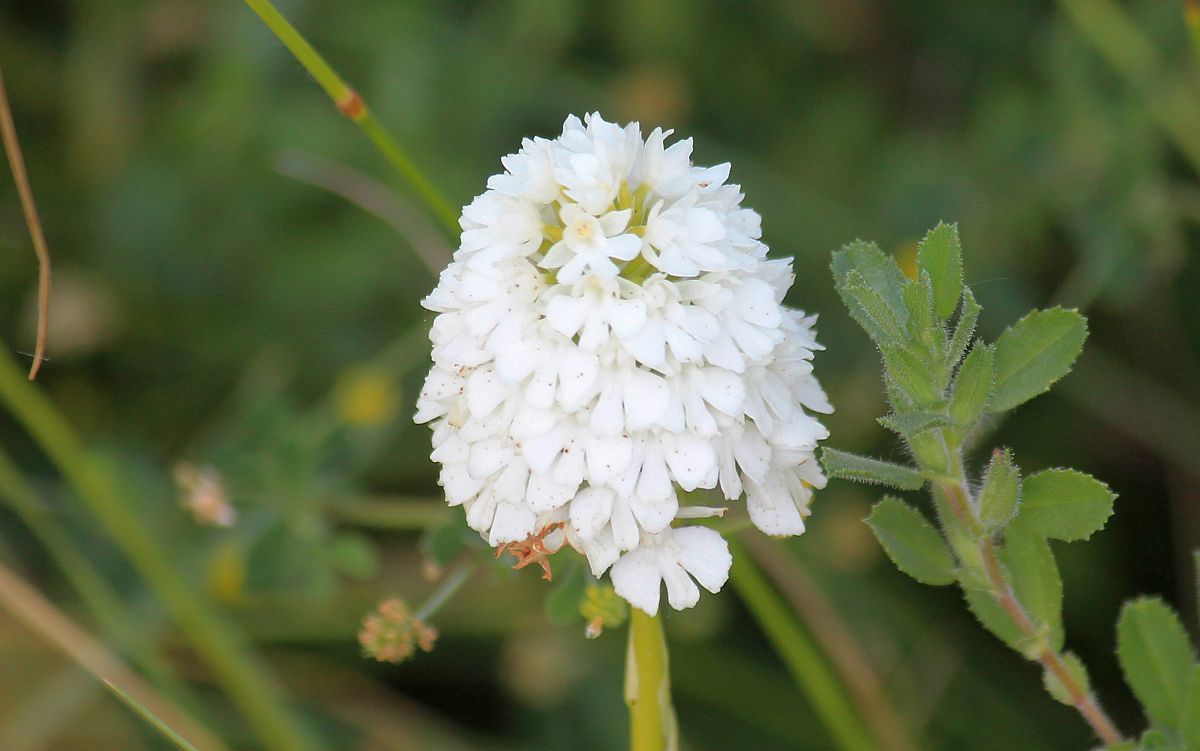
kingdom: Plantae
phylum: Tracheophyta
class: Liliopsida
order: Asparagales
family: Orchidaceae
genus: Anacamptis
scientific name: Anacamptis pyramidalis
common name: Pyramidal orchid
